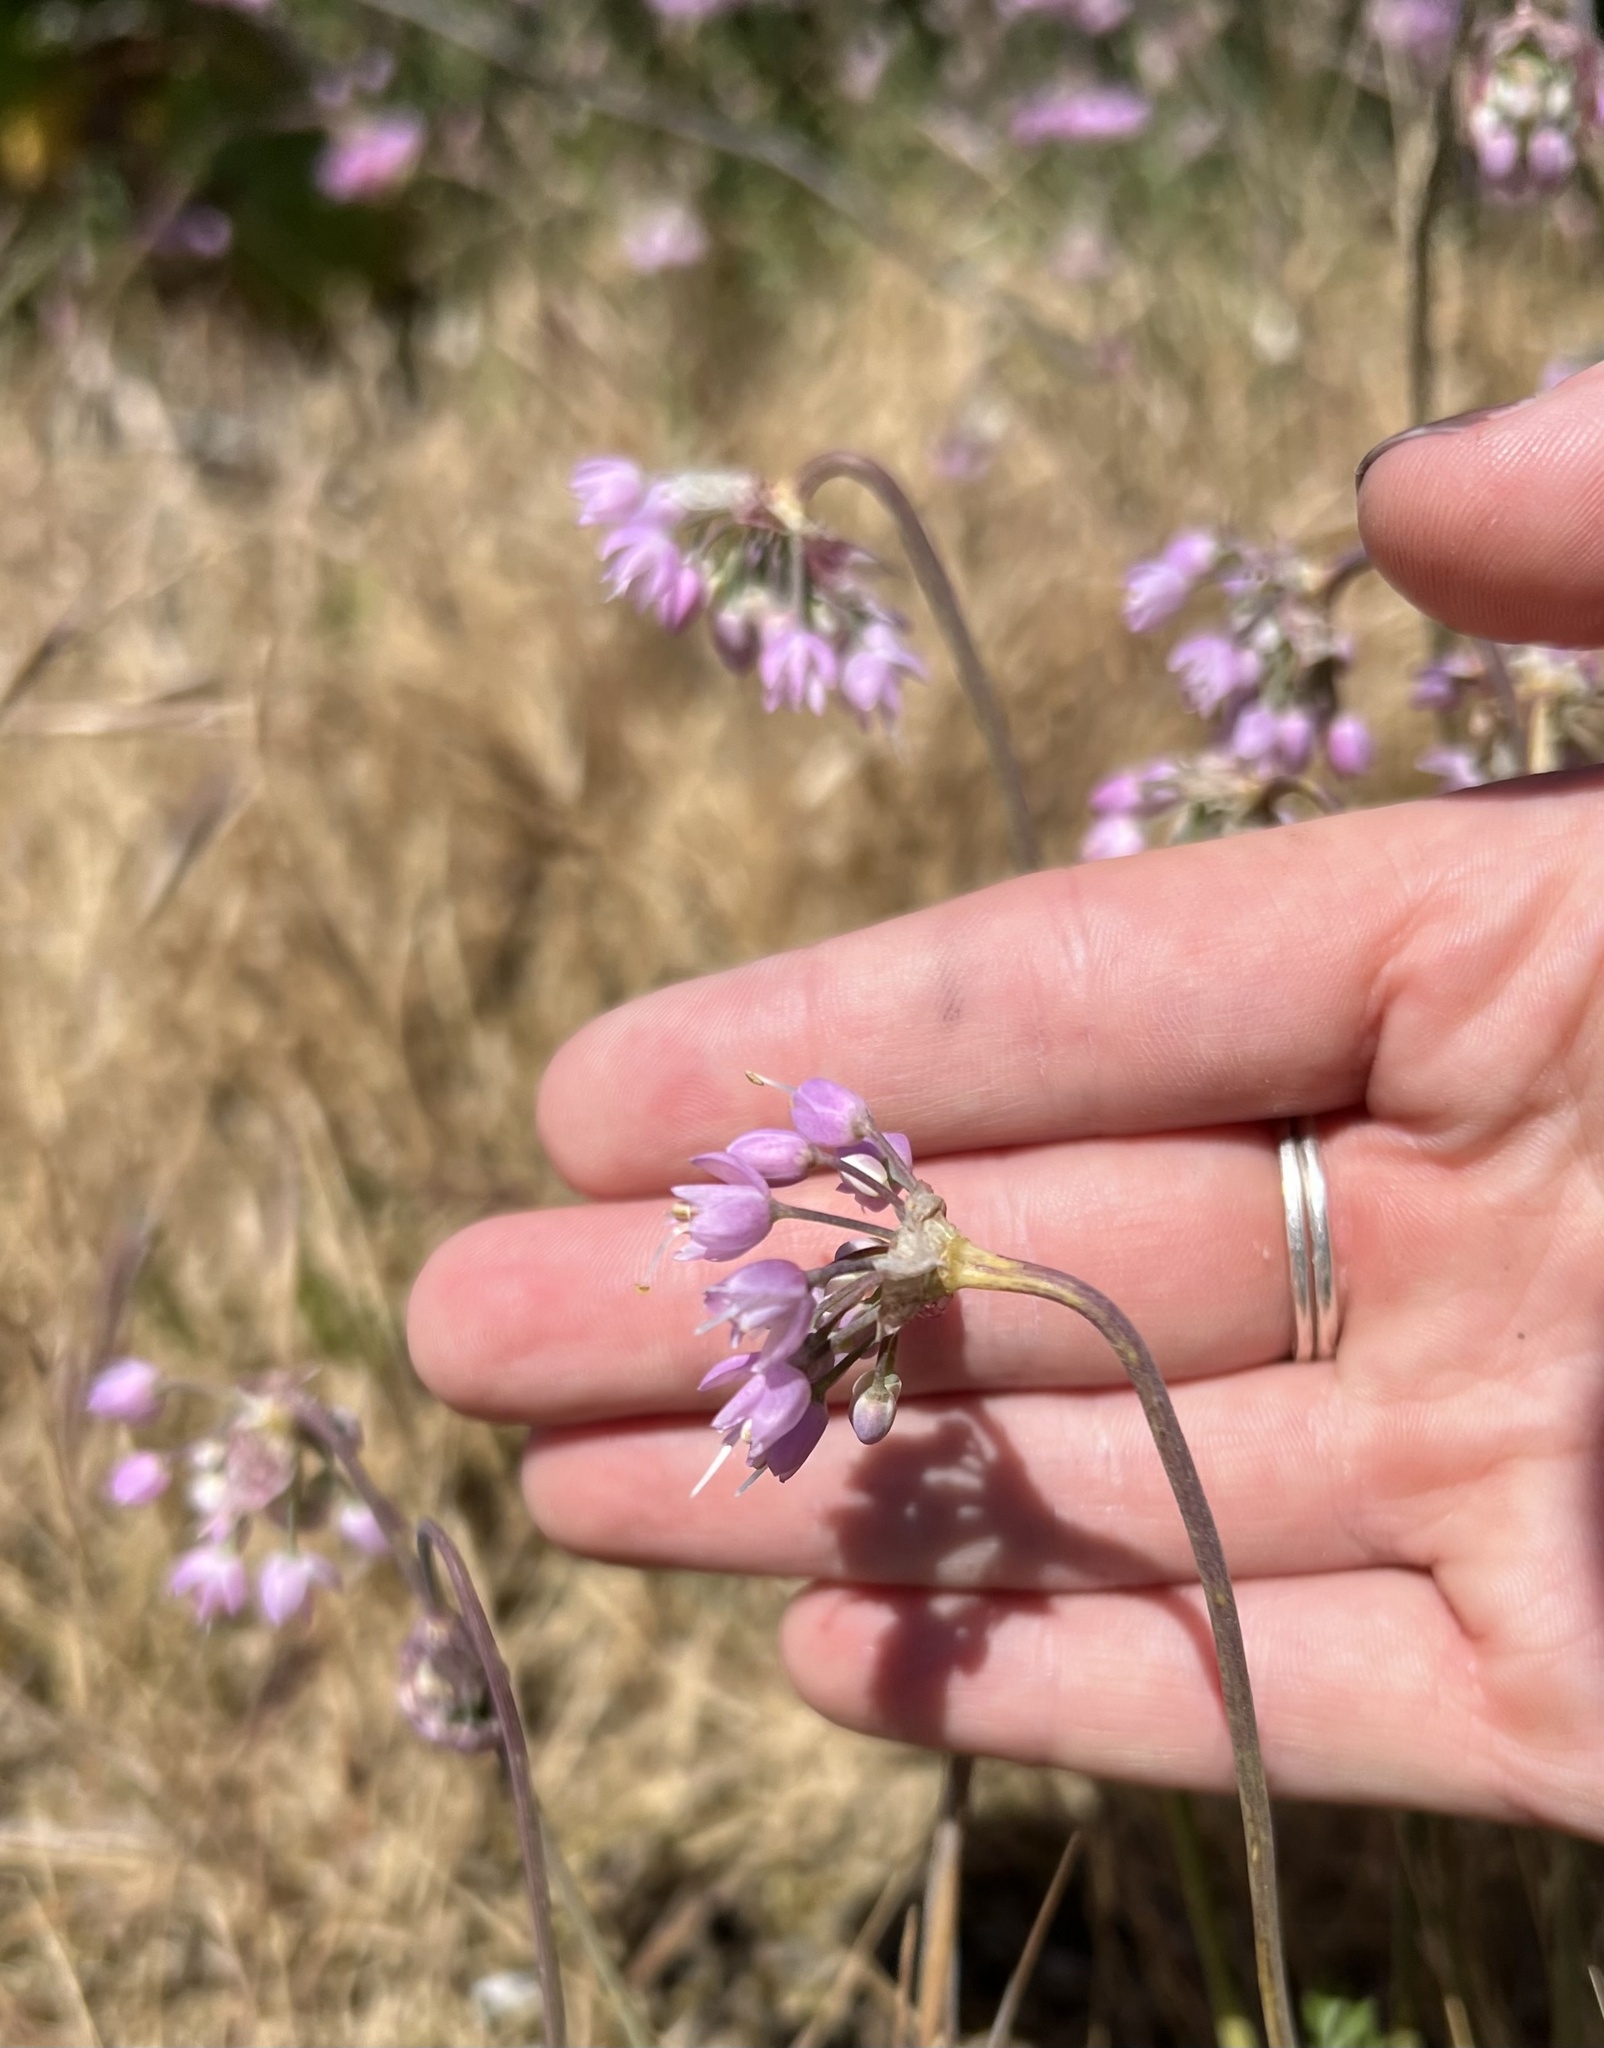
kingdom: Plantae
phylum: Tracheophyta
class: Liliopsida
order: Asparagales
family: Amaryllidaceae
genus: Allium
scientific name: Allium cernuum
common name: Nodding onion
